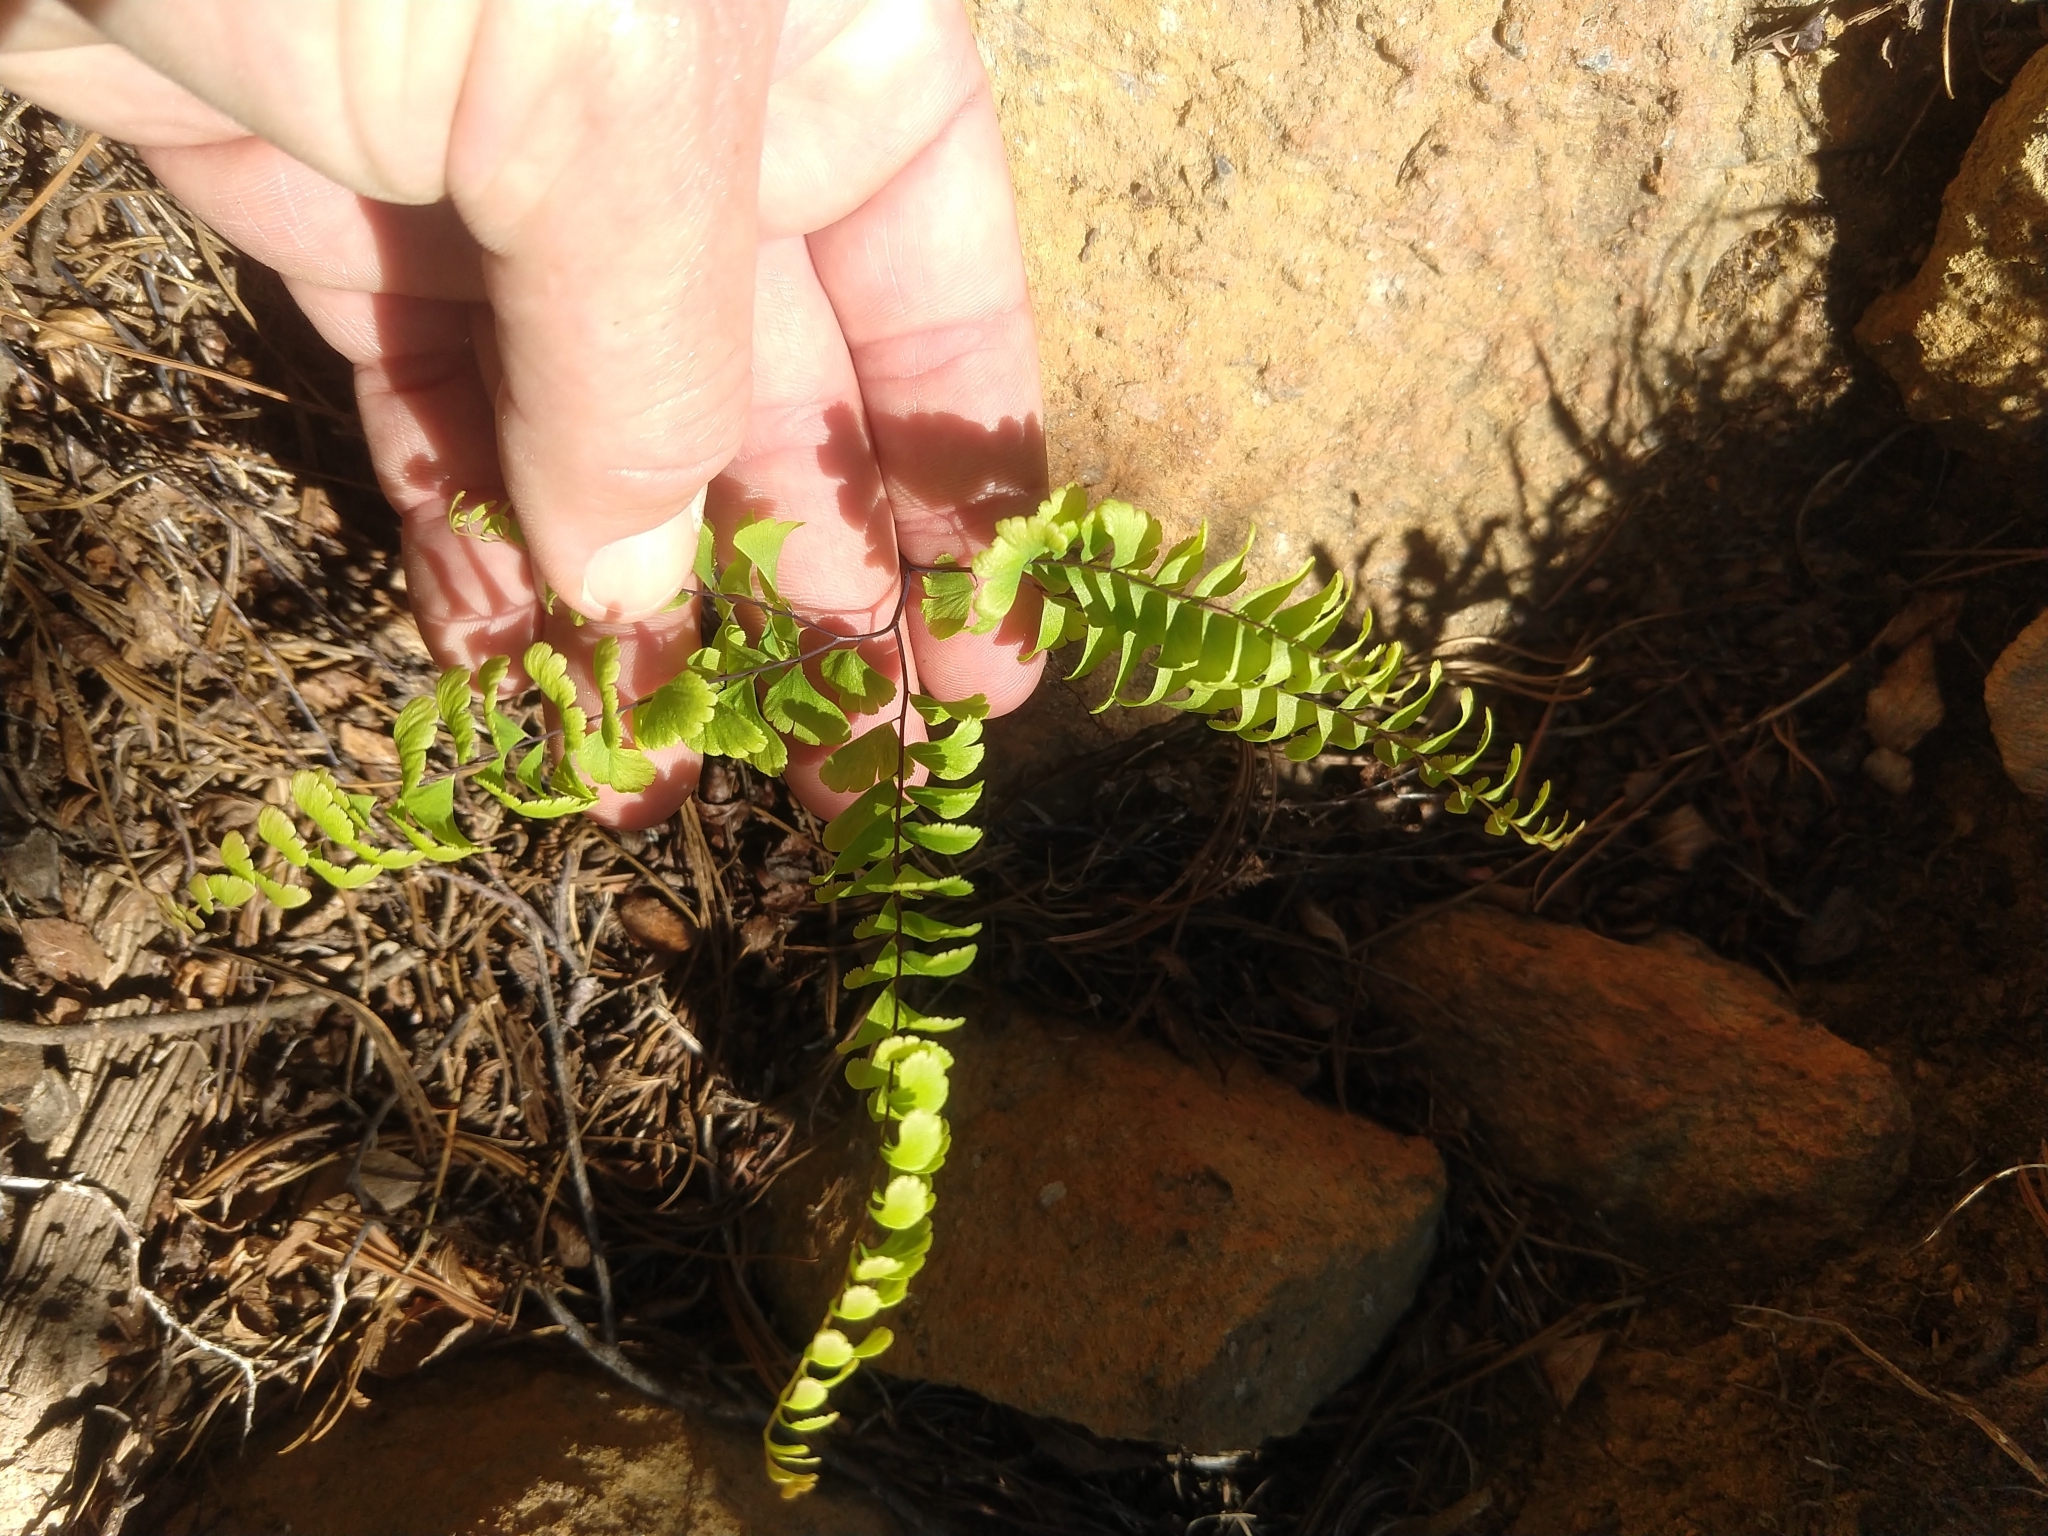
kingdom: Plantae
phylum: Tracheophyta
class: Polypodiopsida
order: Polypodiales
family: Pteridaceae
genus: Adiantum
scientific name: Adiantum aleuticum
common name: Aleutian maidenhair fern
